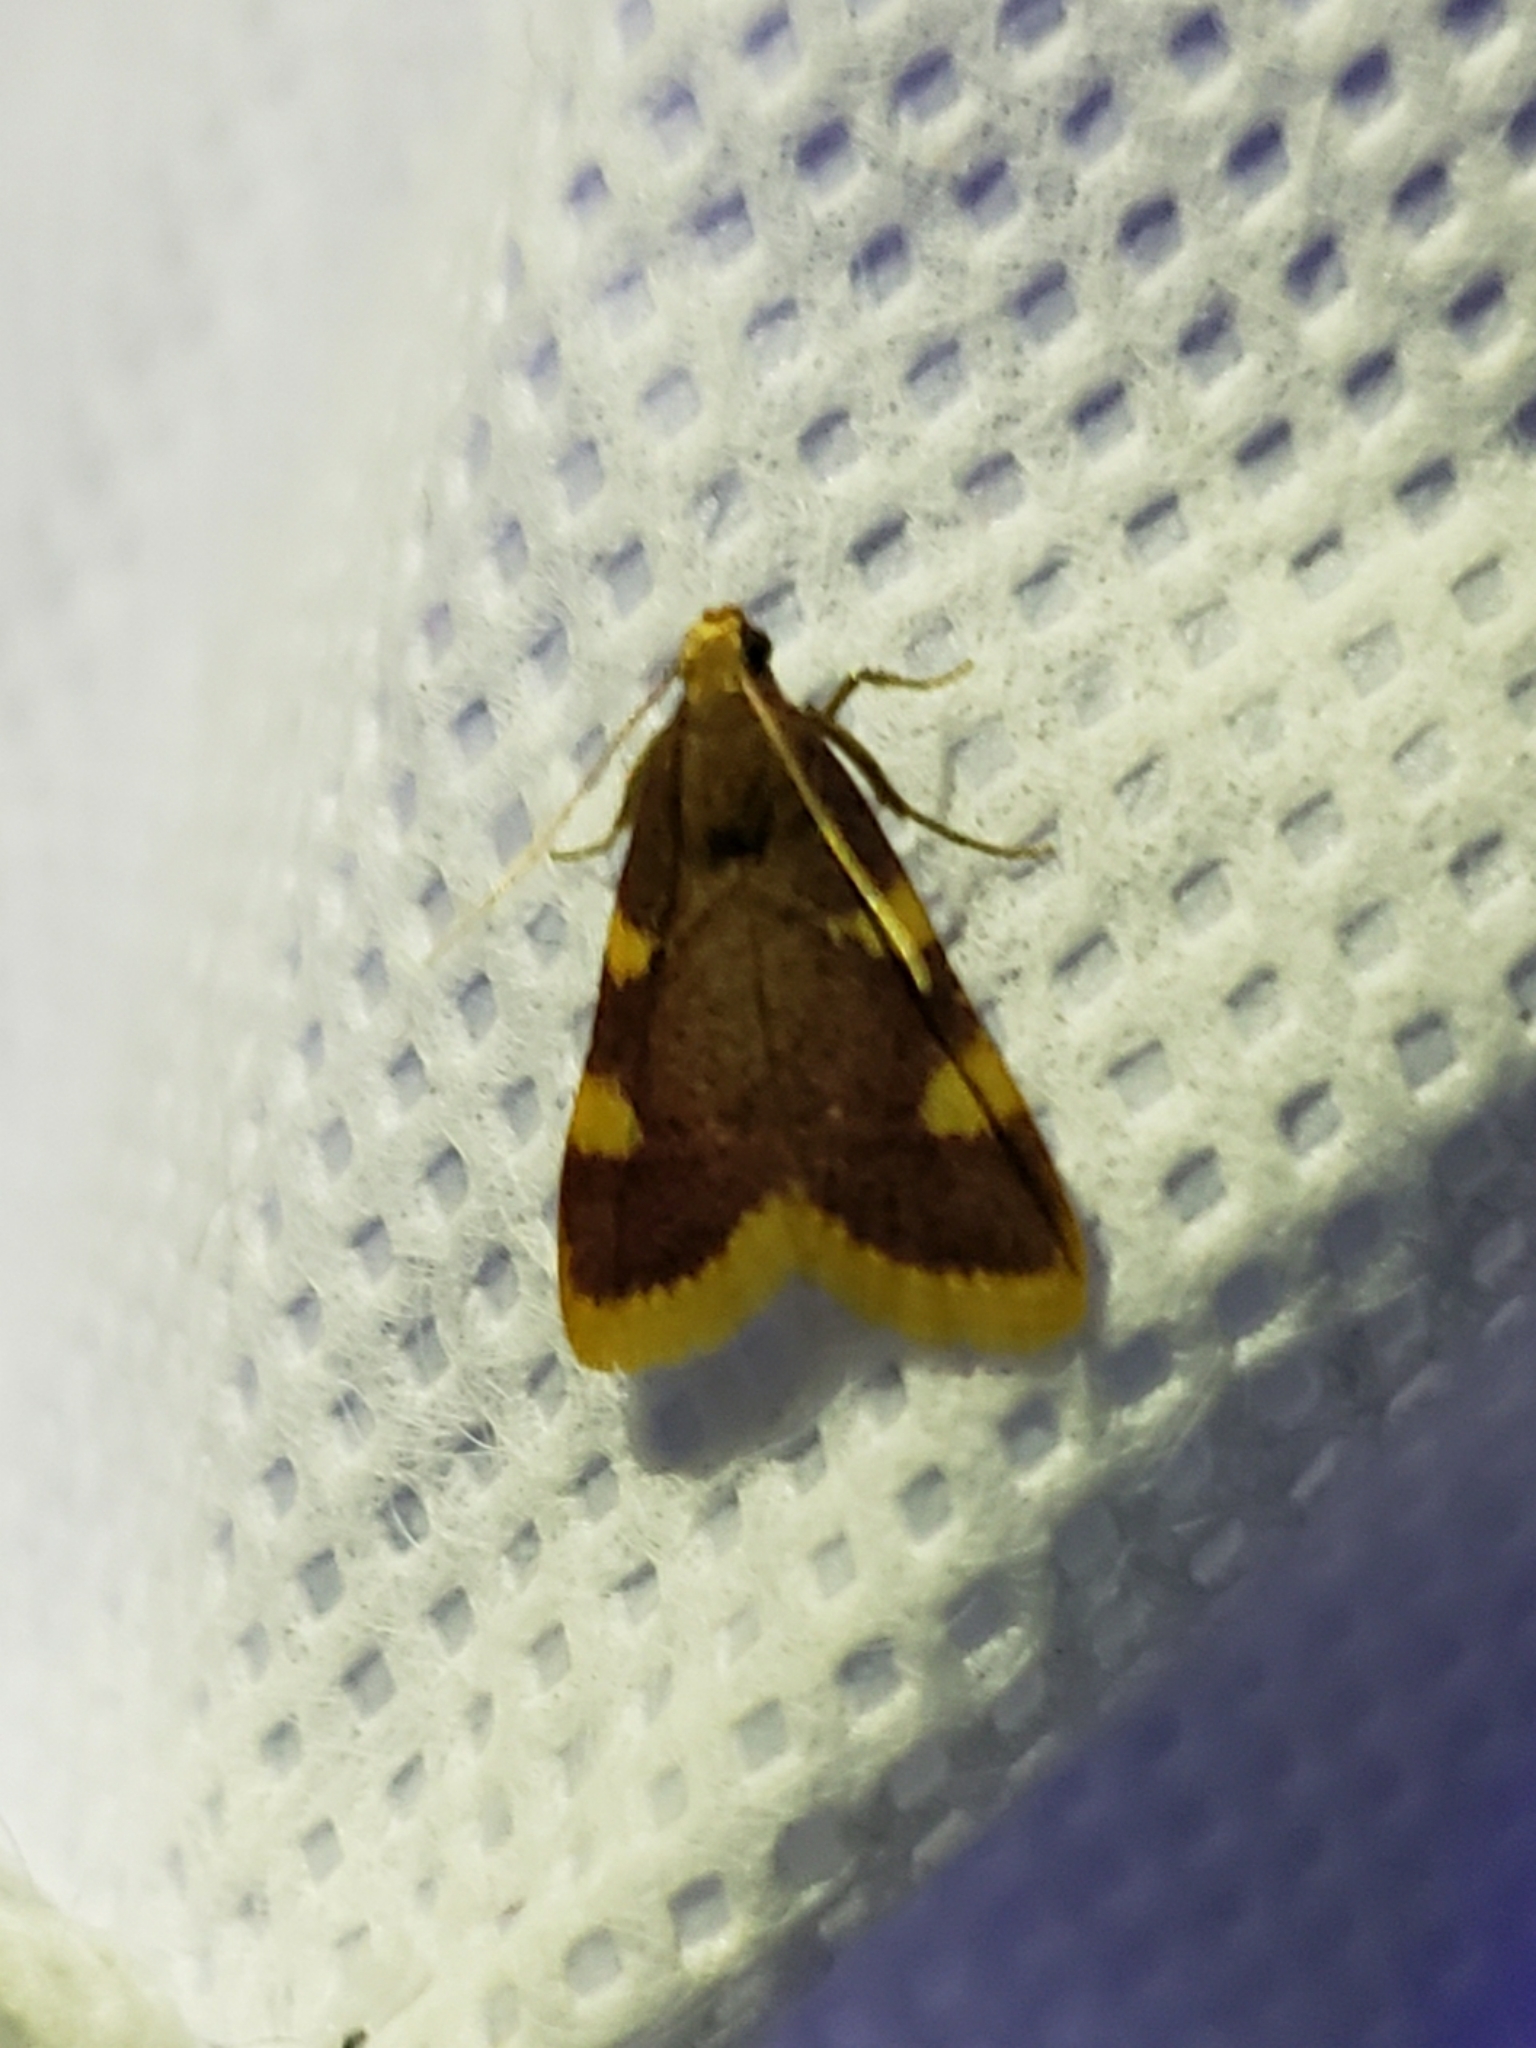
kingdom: Animalia
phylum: Arthropoda
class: Insecta
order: Lepidoptera
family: Pyralidae
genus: Hypsopygia
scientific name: Hypsopygia costalis
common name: Gold triangle
